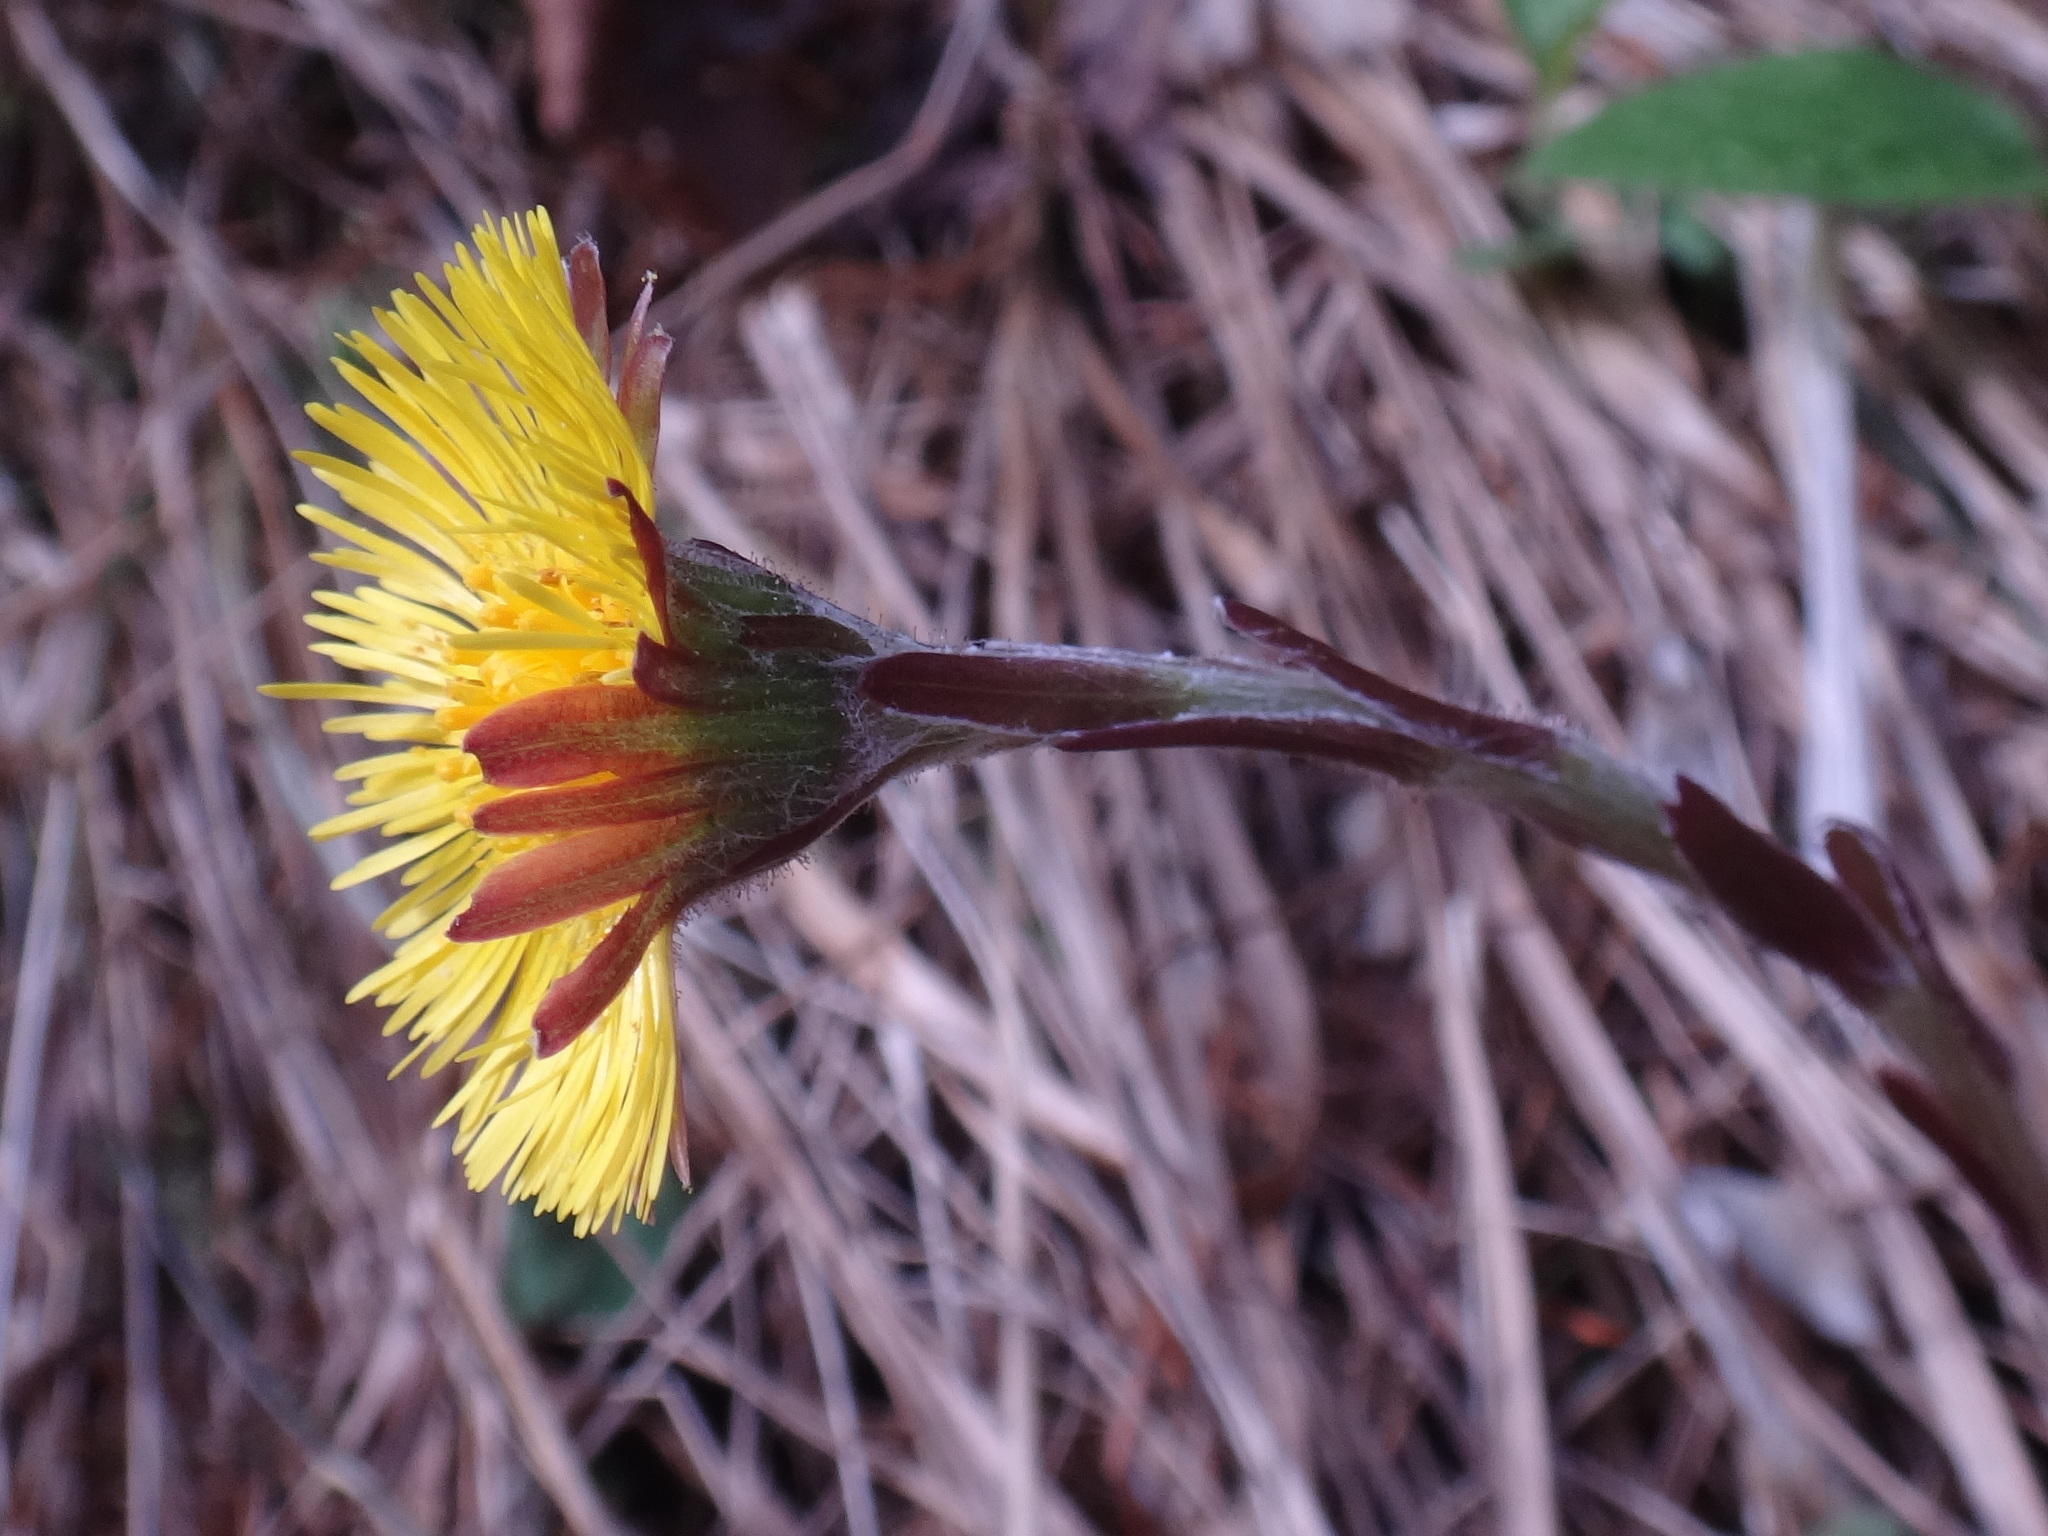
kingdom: Plantae
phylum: Tracheophyta
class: Magnoliopsida
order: Asterales
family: Asteraceae
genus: Tussilago
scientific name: Tussilago farfara
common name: Coltsfoot
